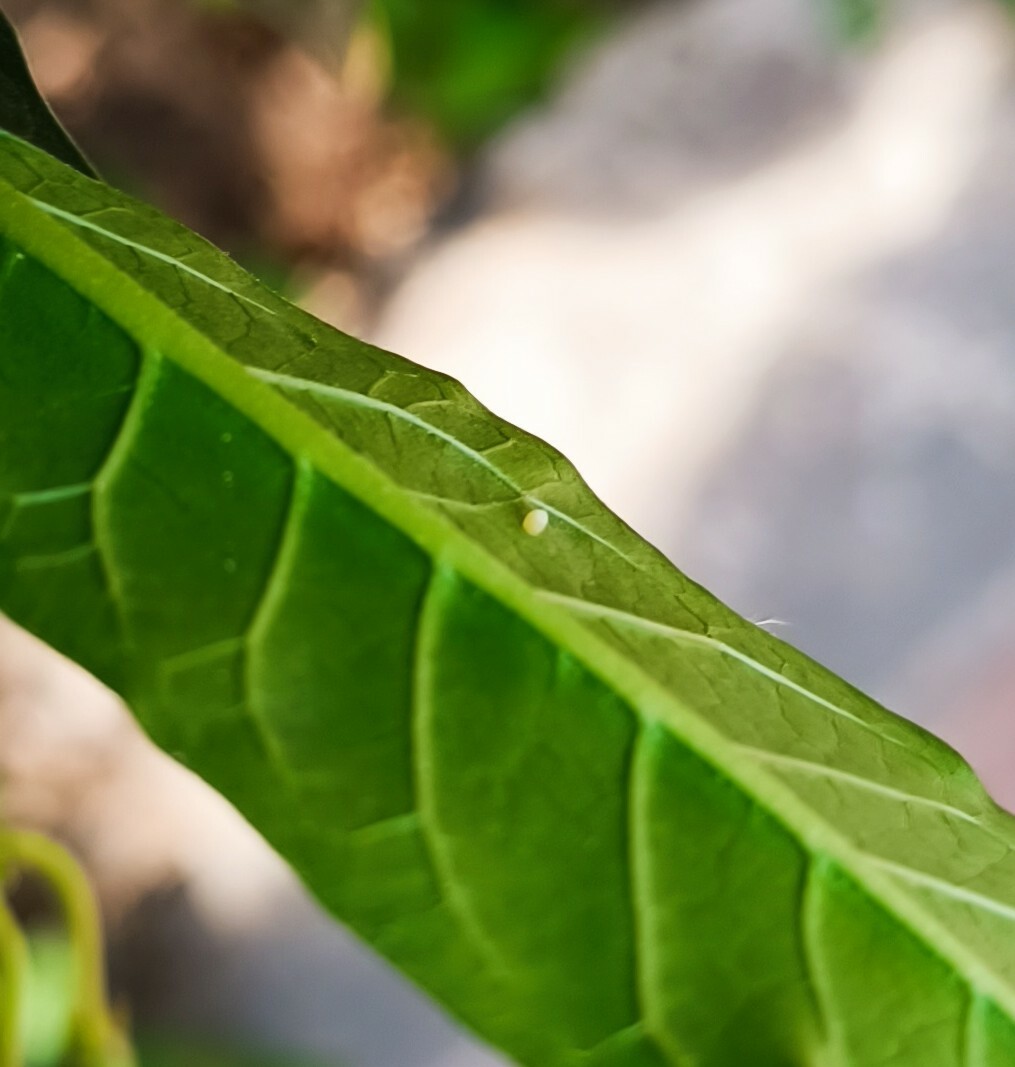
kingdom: Animalia
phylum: Arthropoda
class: Insecta
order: Lepidoptera
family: Nymphalidae
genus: Danaus
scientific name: Danaus plexippus
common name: Monarch
